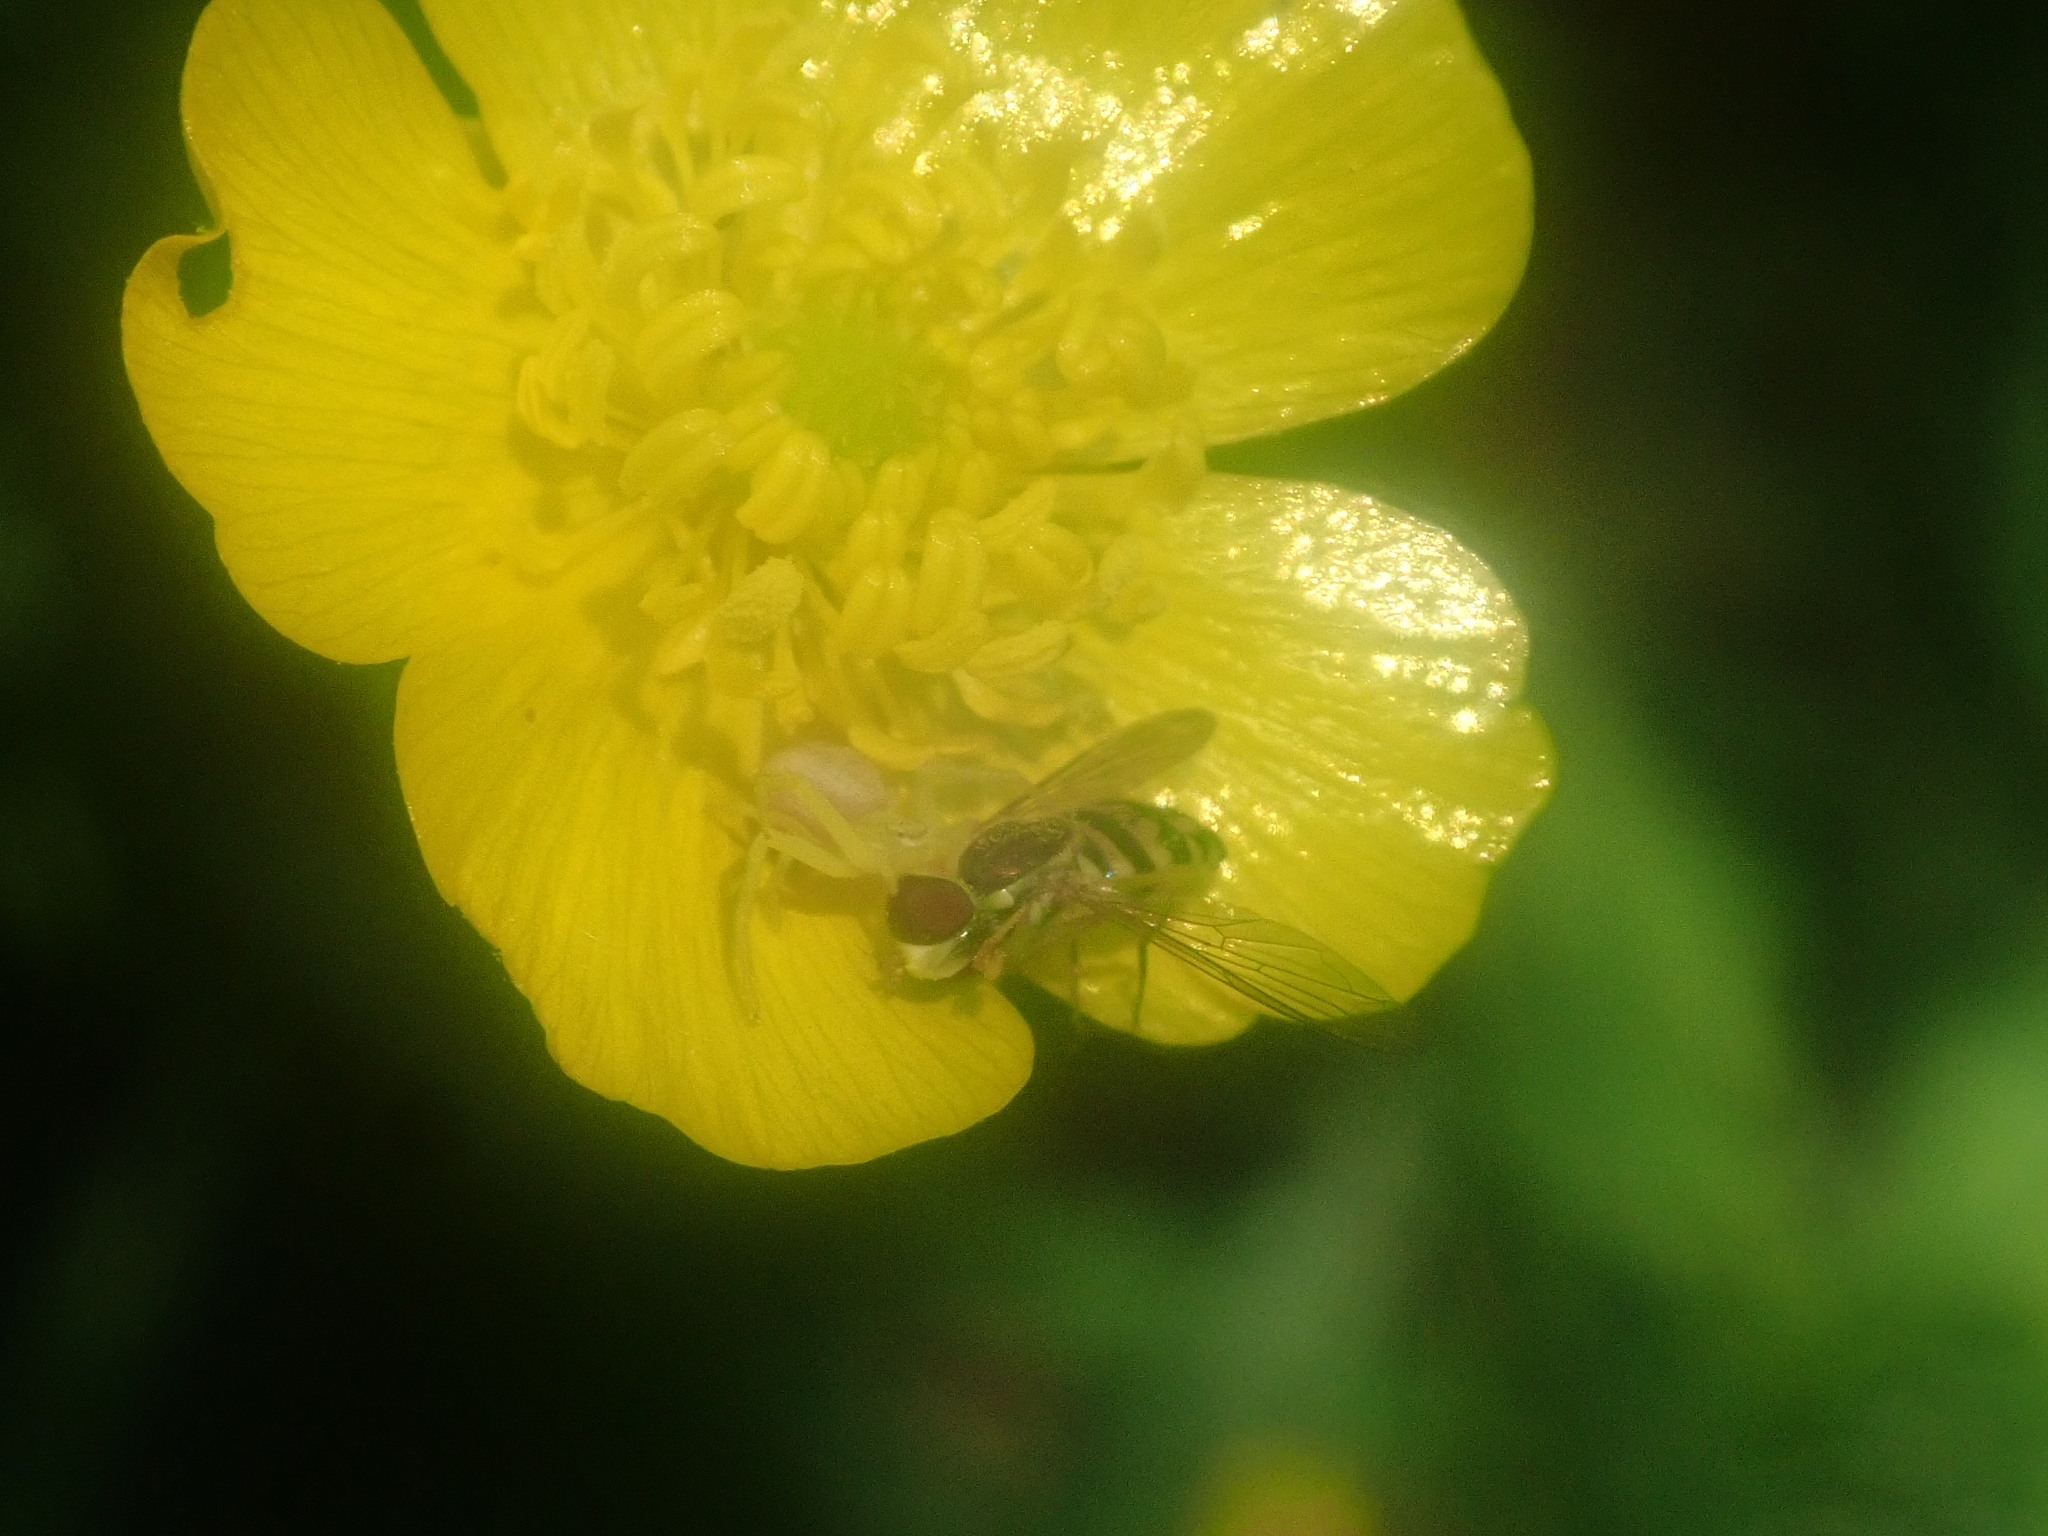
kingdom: Animalia
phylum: Arthropoda
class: Insecta
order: Diptera
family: Syrphidae
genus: Toxomerus
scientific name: Toxomerus geminatus
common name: Eastern calligrapher
